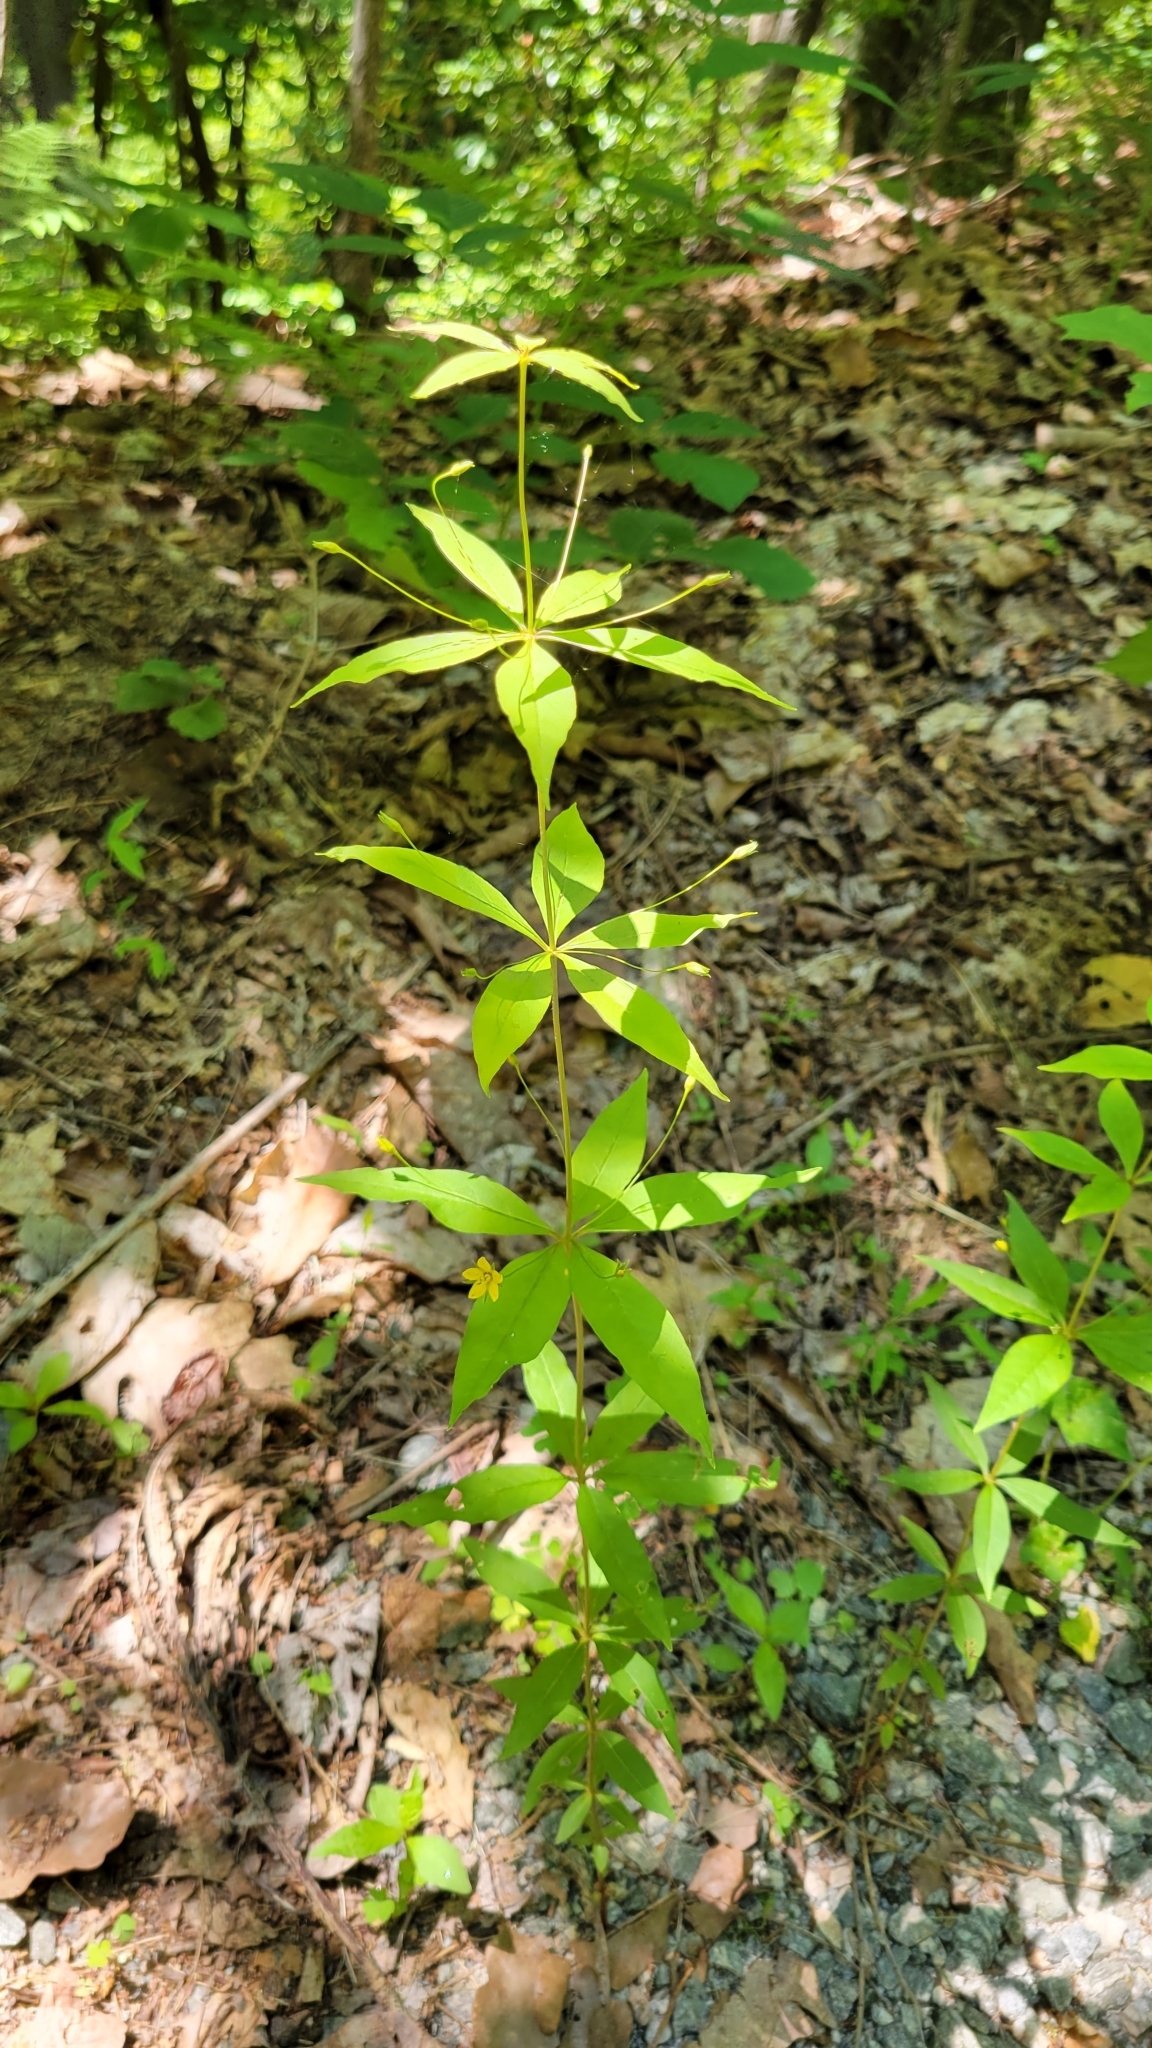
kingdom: Plantae
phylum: Tracheophyta
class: Magnoliopsida
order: Ericales
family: Primulaceae
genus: Lysimachia
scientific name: Lysimachia quadrifolia
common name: Whorled loosestrife
